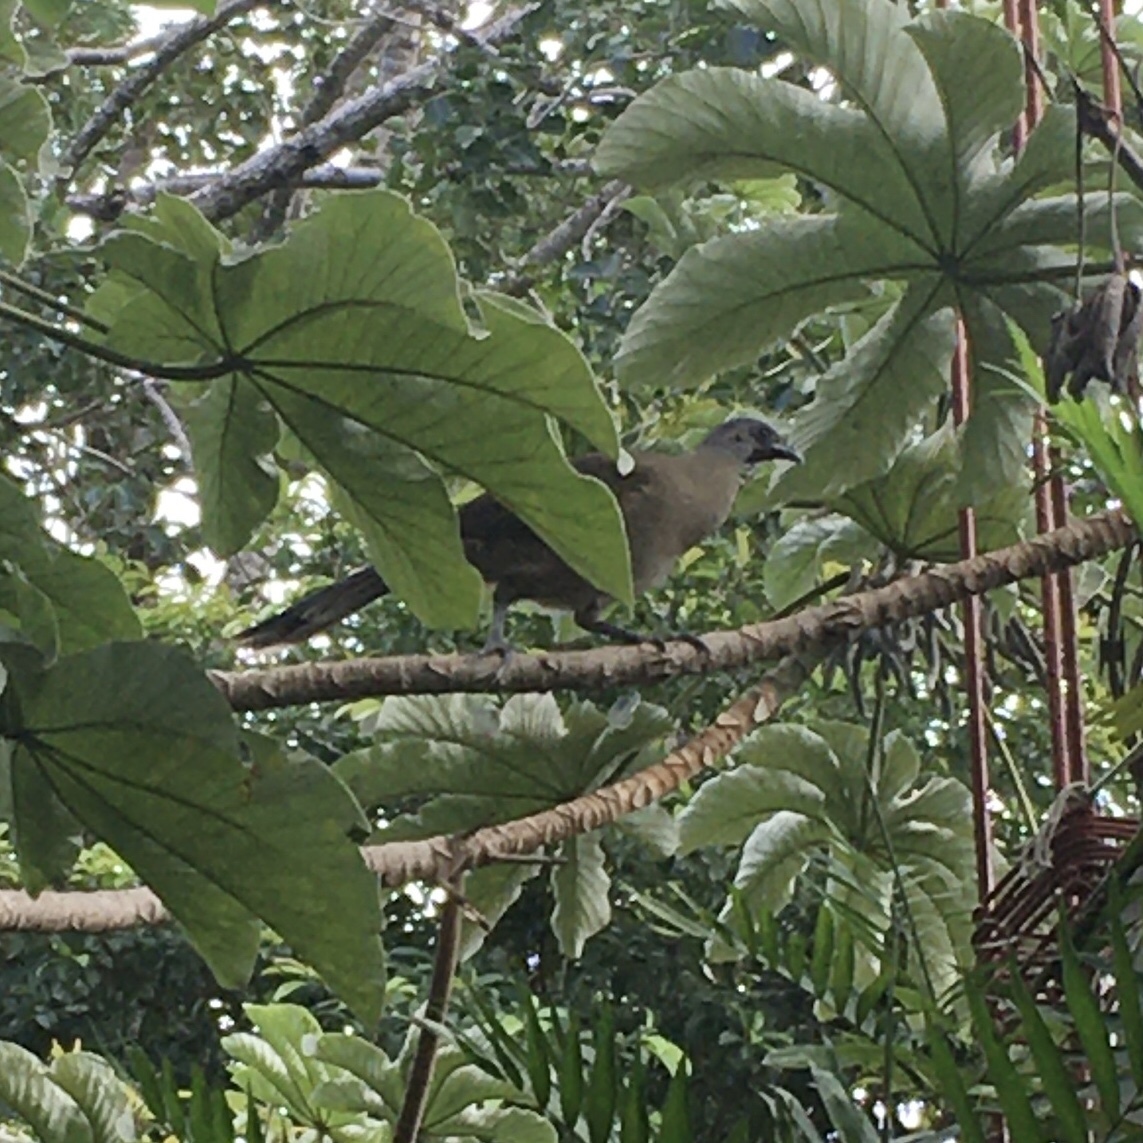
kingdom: Animalia
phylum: Chordata
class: Aves
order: Galliformes
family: Cracidae
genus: Ortalis
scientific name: Ortalis vetula
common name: Plain chachalaca
